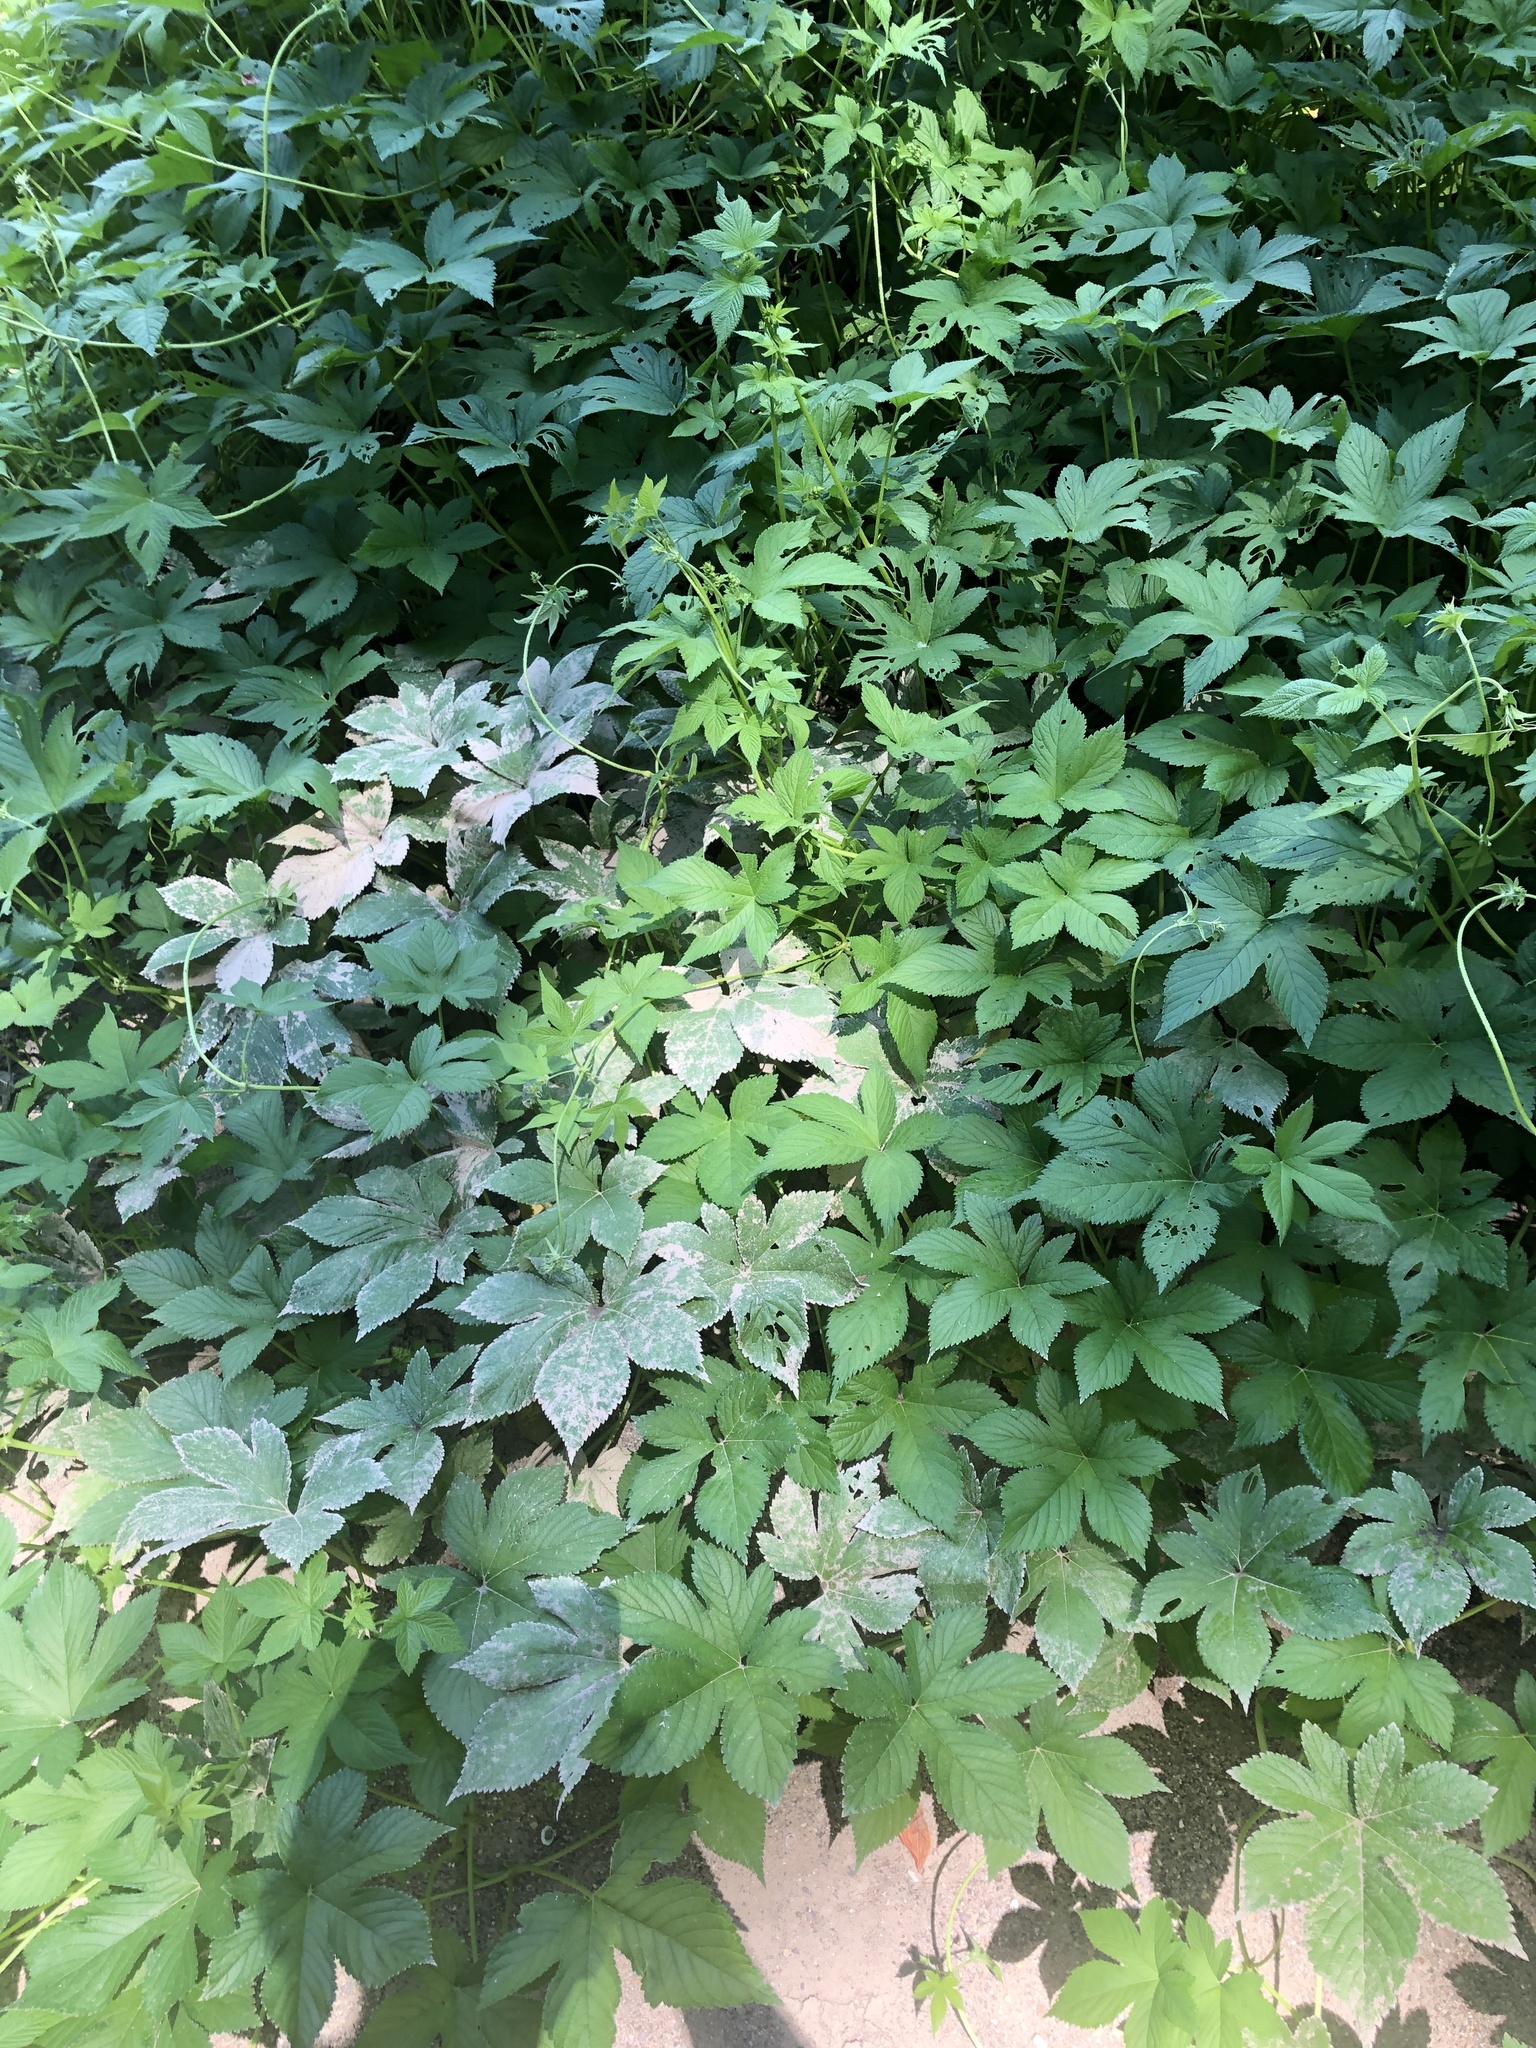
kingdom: Plantae
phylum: Tracheophyta
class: Magnoliopsida
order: Rosales
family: Cannabaceae
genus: Humulus
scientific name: Humulus scandens
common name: Japanese hop
